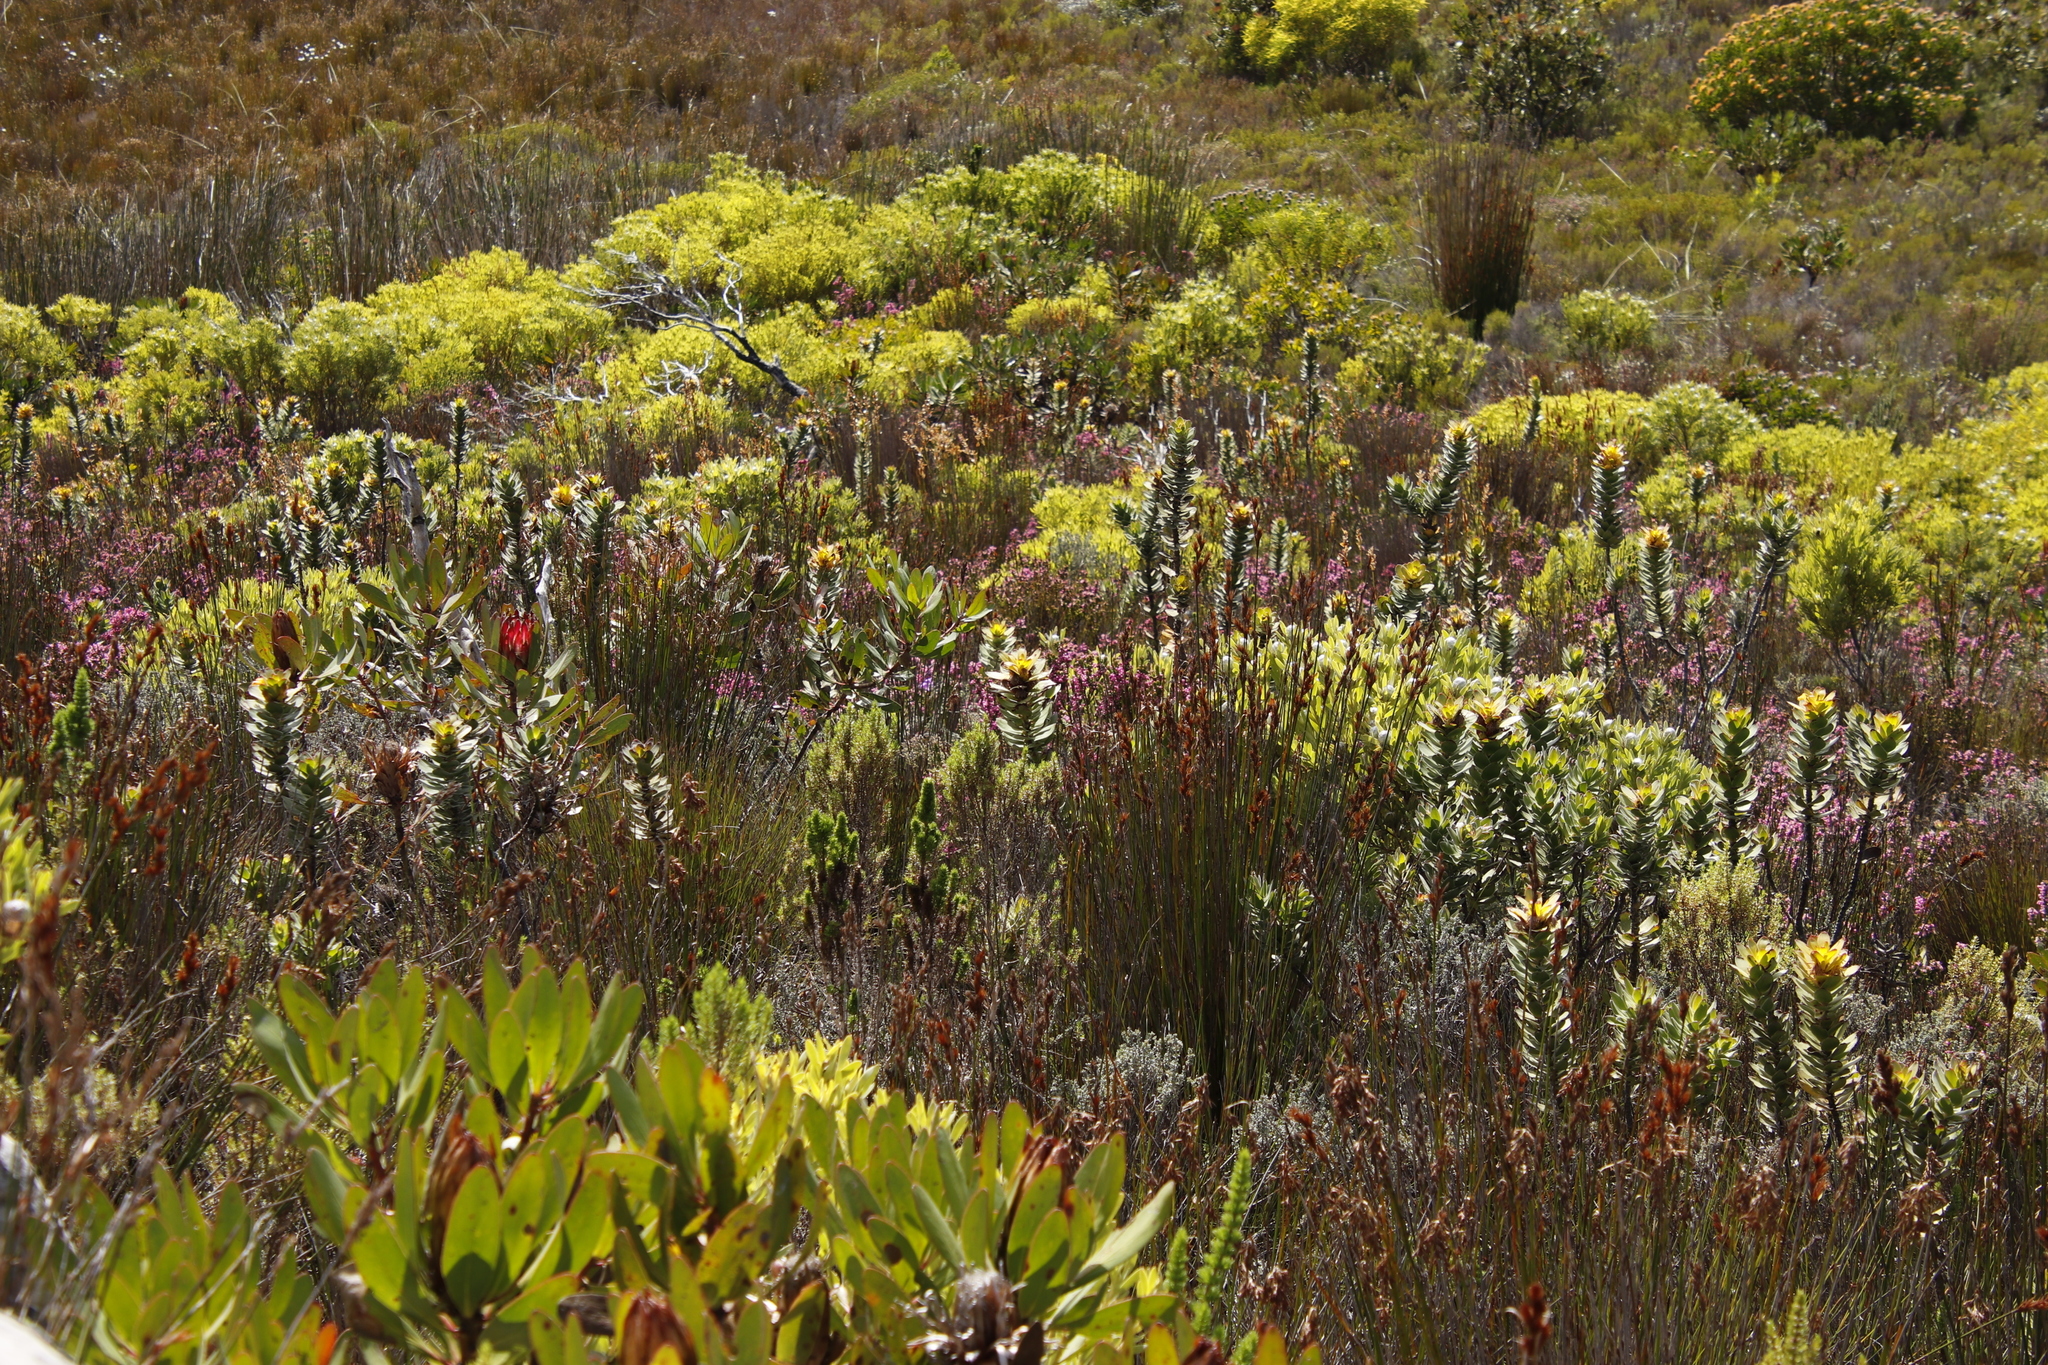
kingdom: Plantae
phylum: Tracheophyta
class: Magnoliopsida
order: Proteales
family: Proteaceae
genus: Mimetes
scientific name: Mimetes saxatilis
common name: Limestone pagoda
